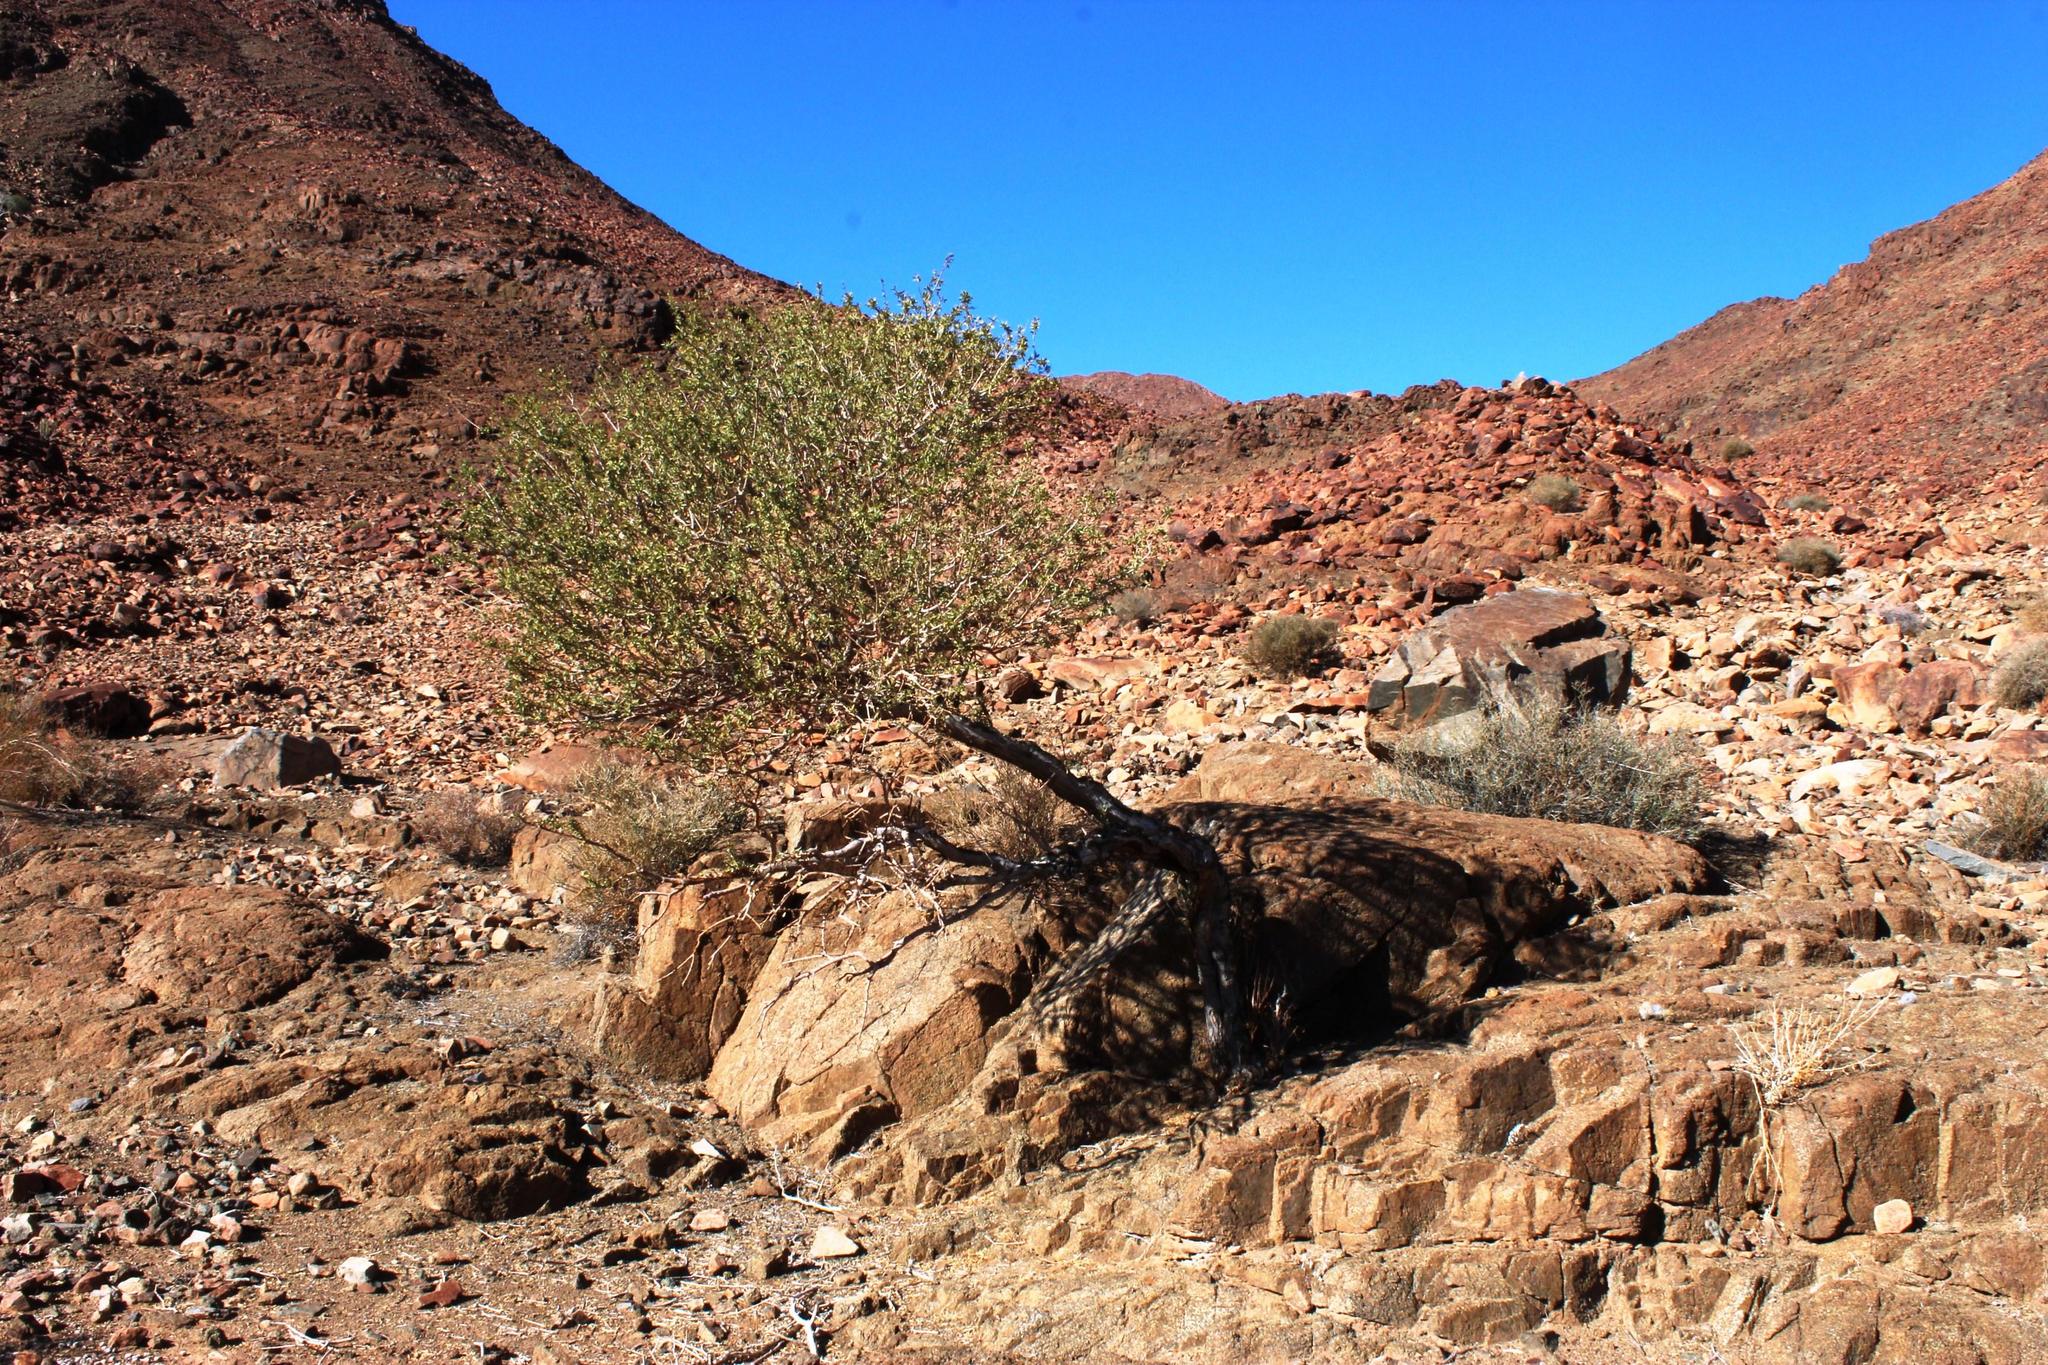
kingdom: Plantae
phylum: Tracheophyta
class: Magnoliopsida
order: Brassicales
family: Capparaceae
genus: Boscia
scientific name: Boscia albitrunca
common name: Caper bush
